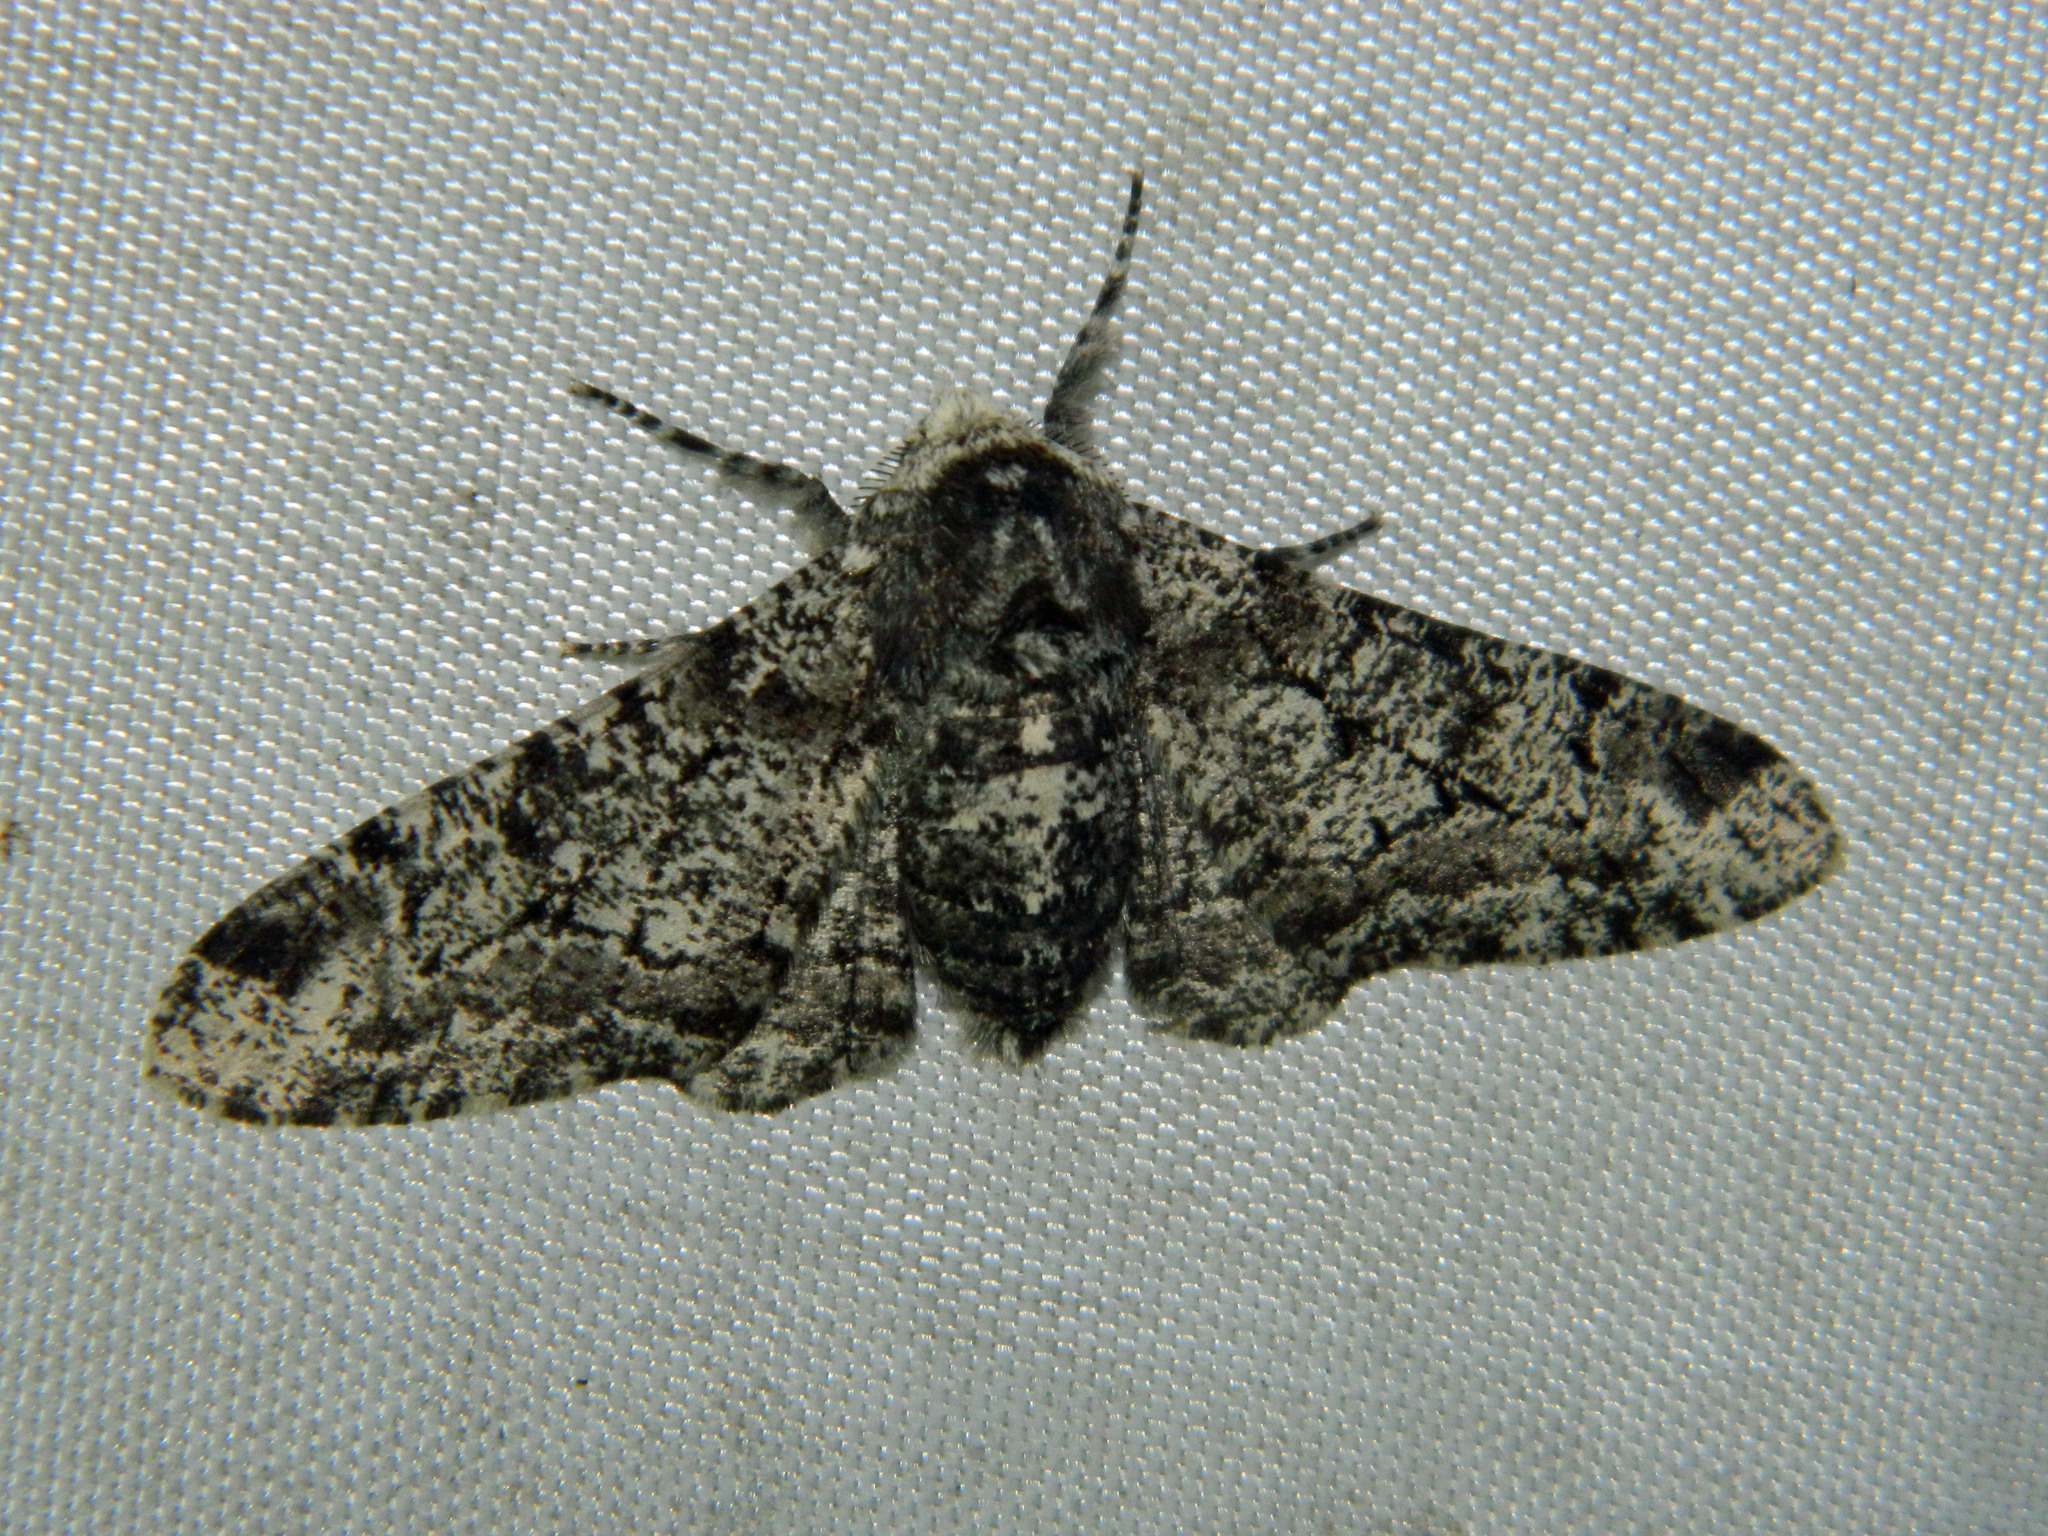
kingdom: Animalia
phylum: Arthropoda
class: Insecta
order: Lepidoptera
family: Geometridae
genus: Biston
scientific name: Biston betularia
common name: Peppered moth
